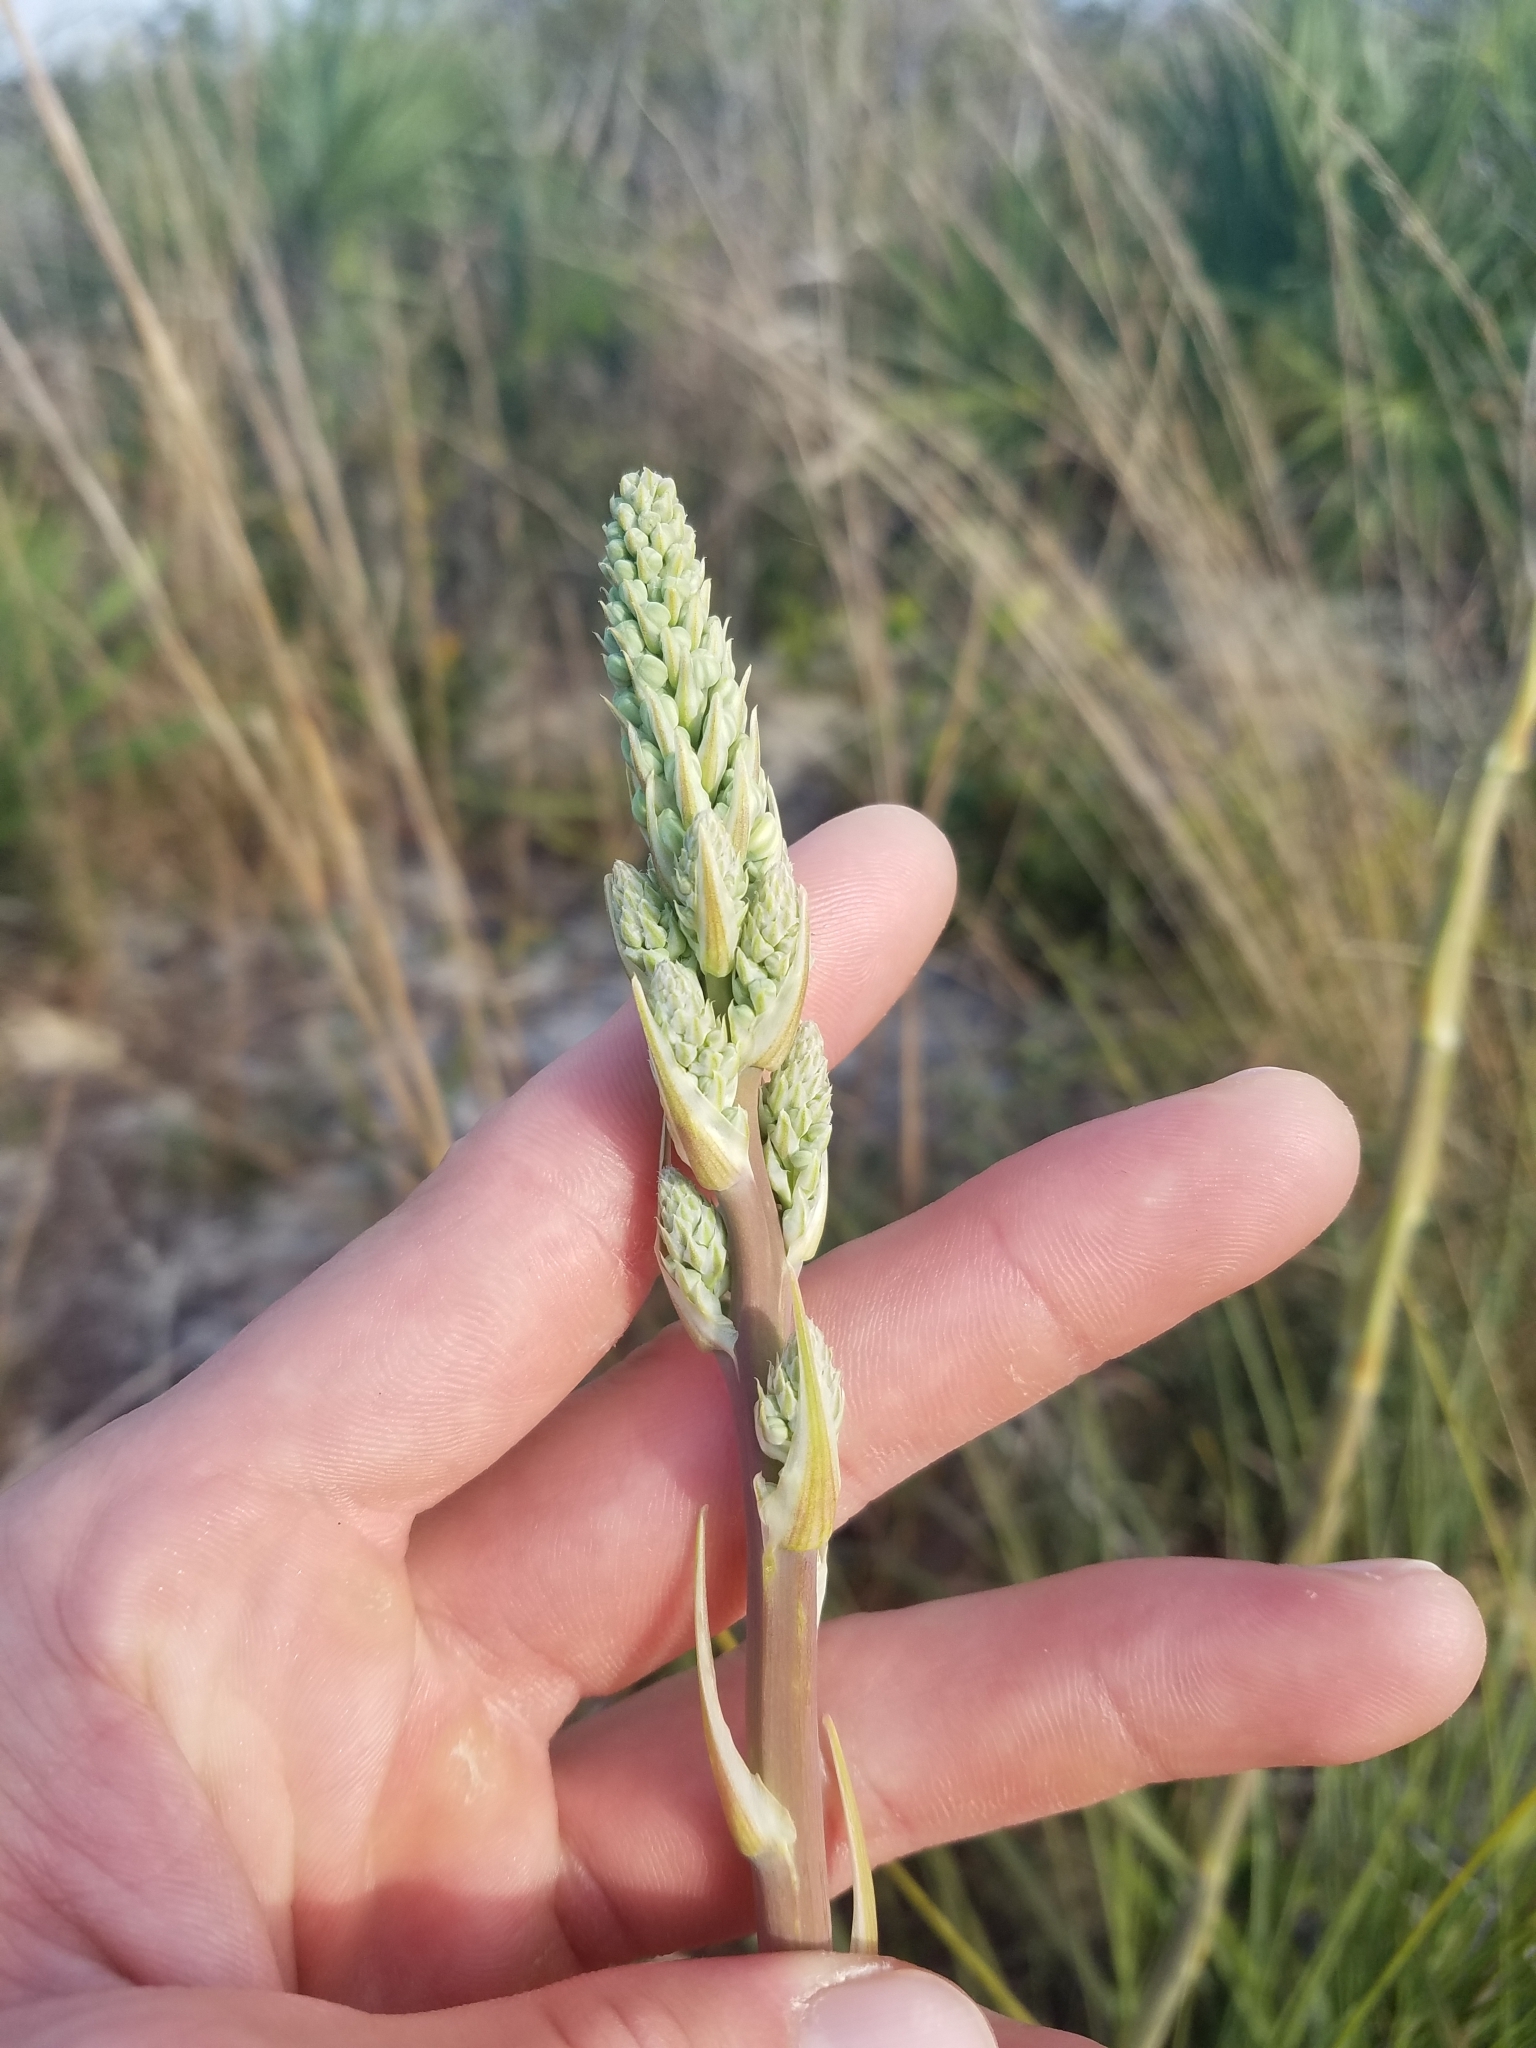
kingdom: Plantae
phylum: Tracheophyta
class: Liliopsida
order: Asparagales
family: Asparagaceae
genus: Nolina
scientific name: Nolina brittoniana
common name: Britton's bear-grass
